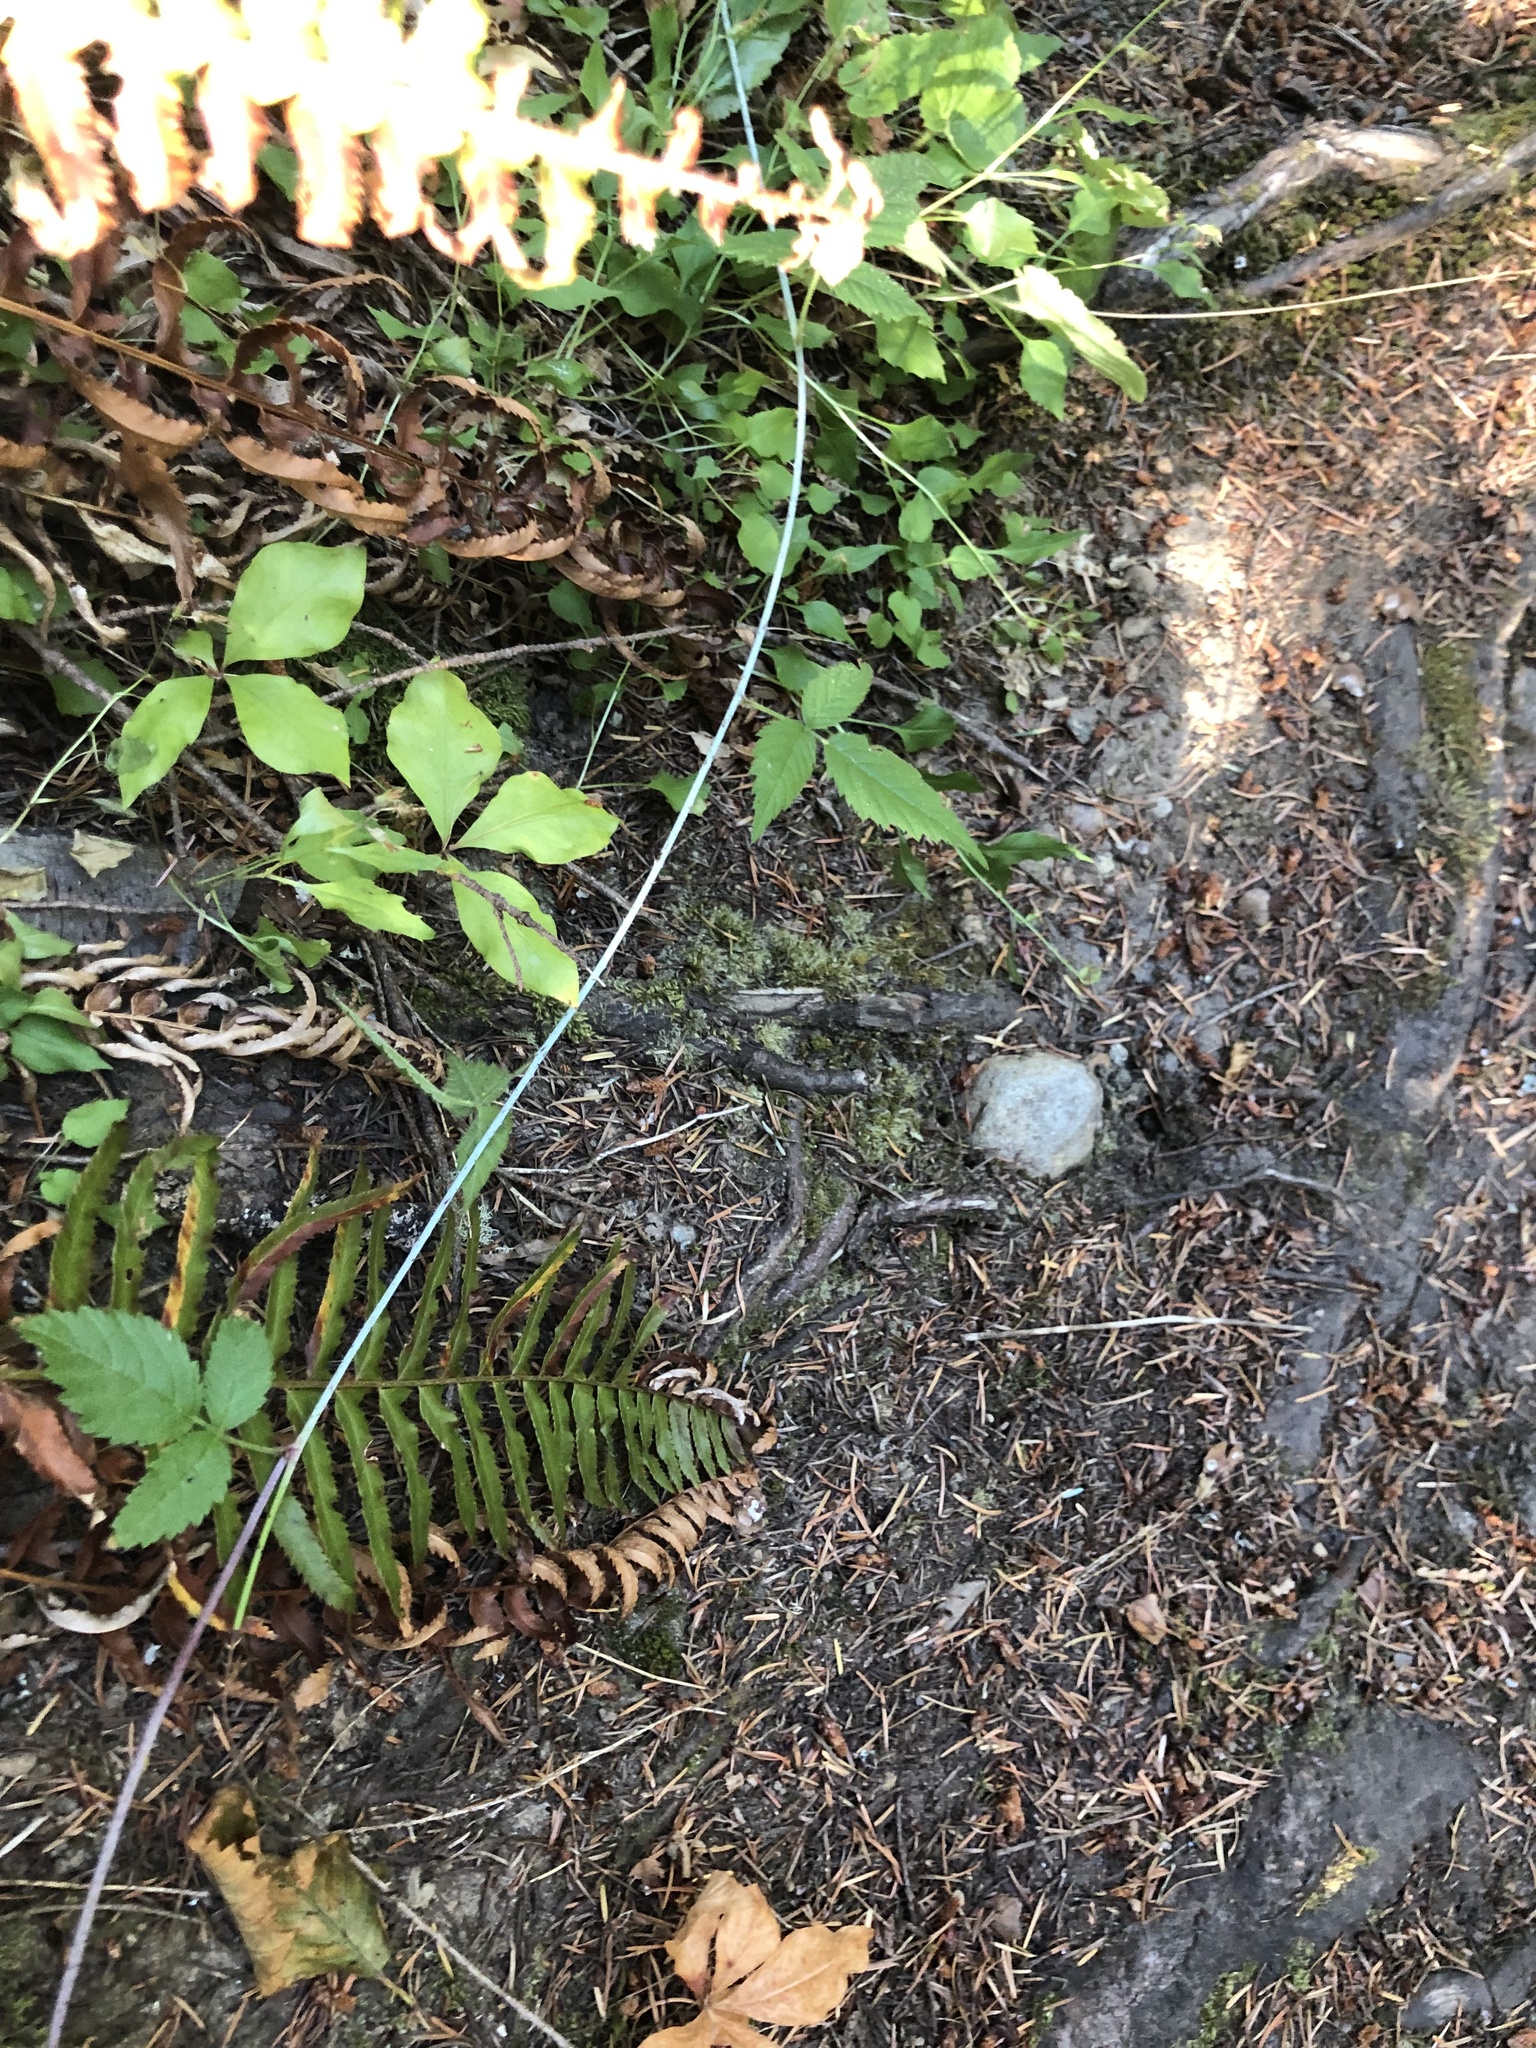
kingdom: Plantae
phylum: Tracheophyta
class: Magnoliopsida
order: Rosales
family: Rosaceae
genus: Rubus
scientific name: Rubus ursinus
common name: Pacific blackberry
